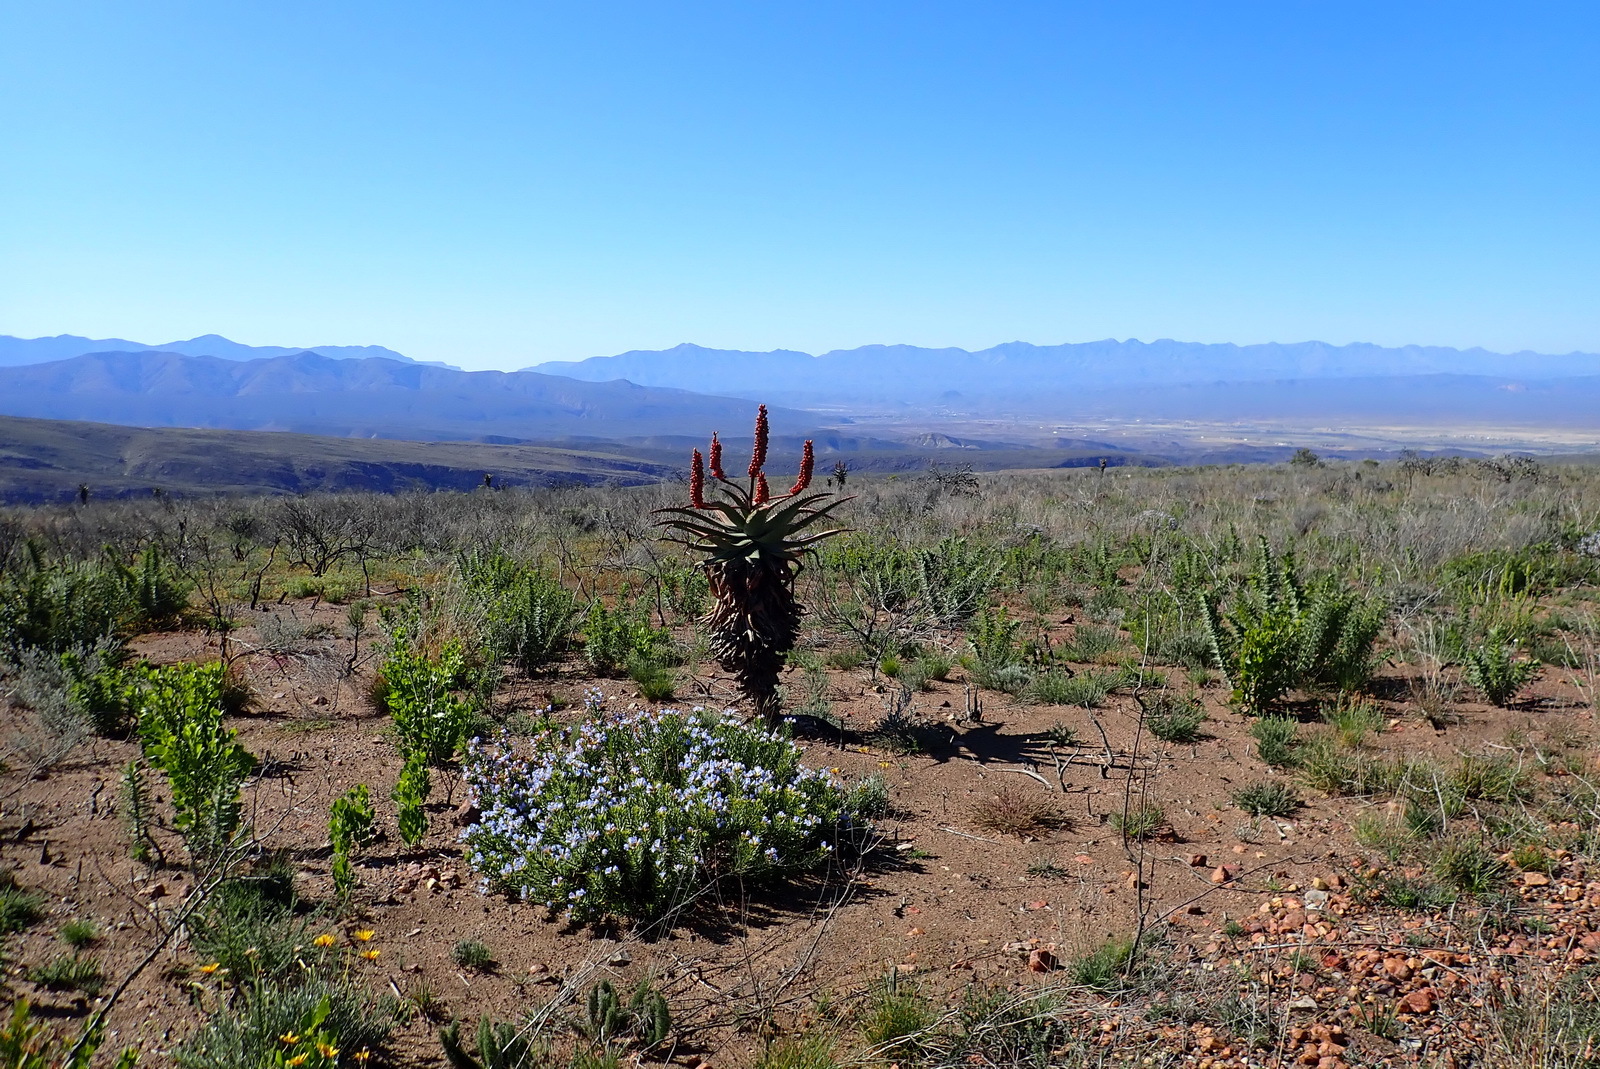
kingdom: Plantae
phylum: Tracheophyta
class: Liliopsida
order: Asparagales
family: Asphodelaceae
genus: Aloe
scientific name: Aloe ferox
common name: Bitter aloe
